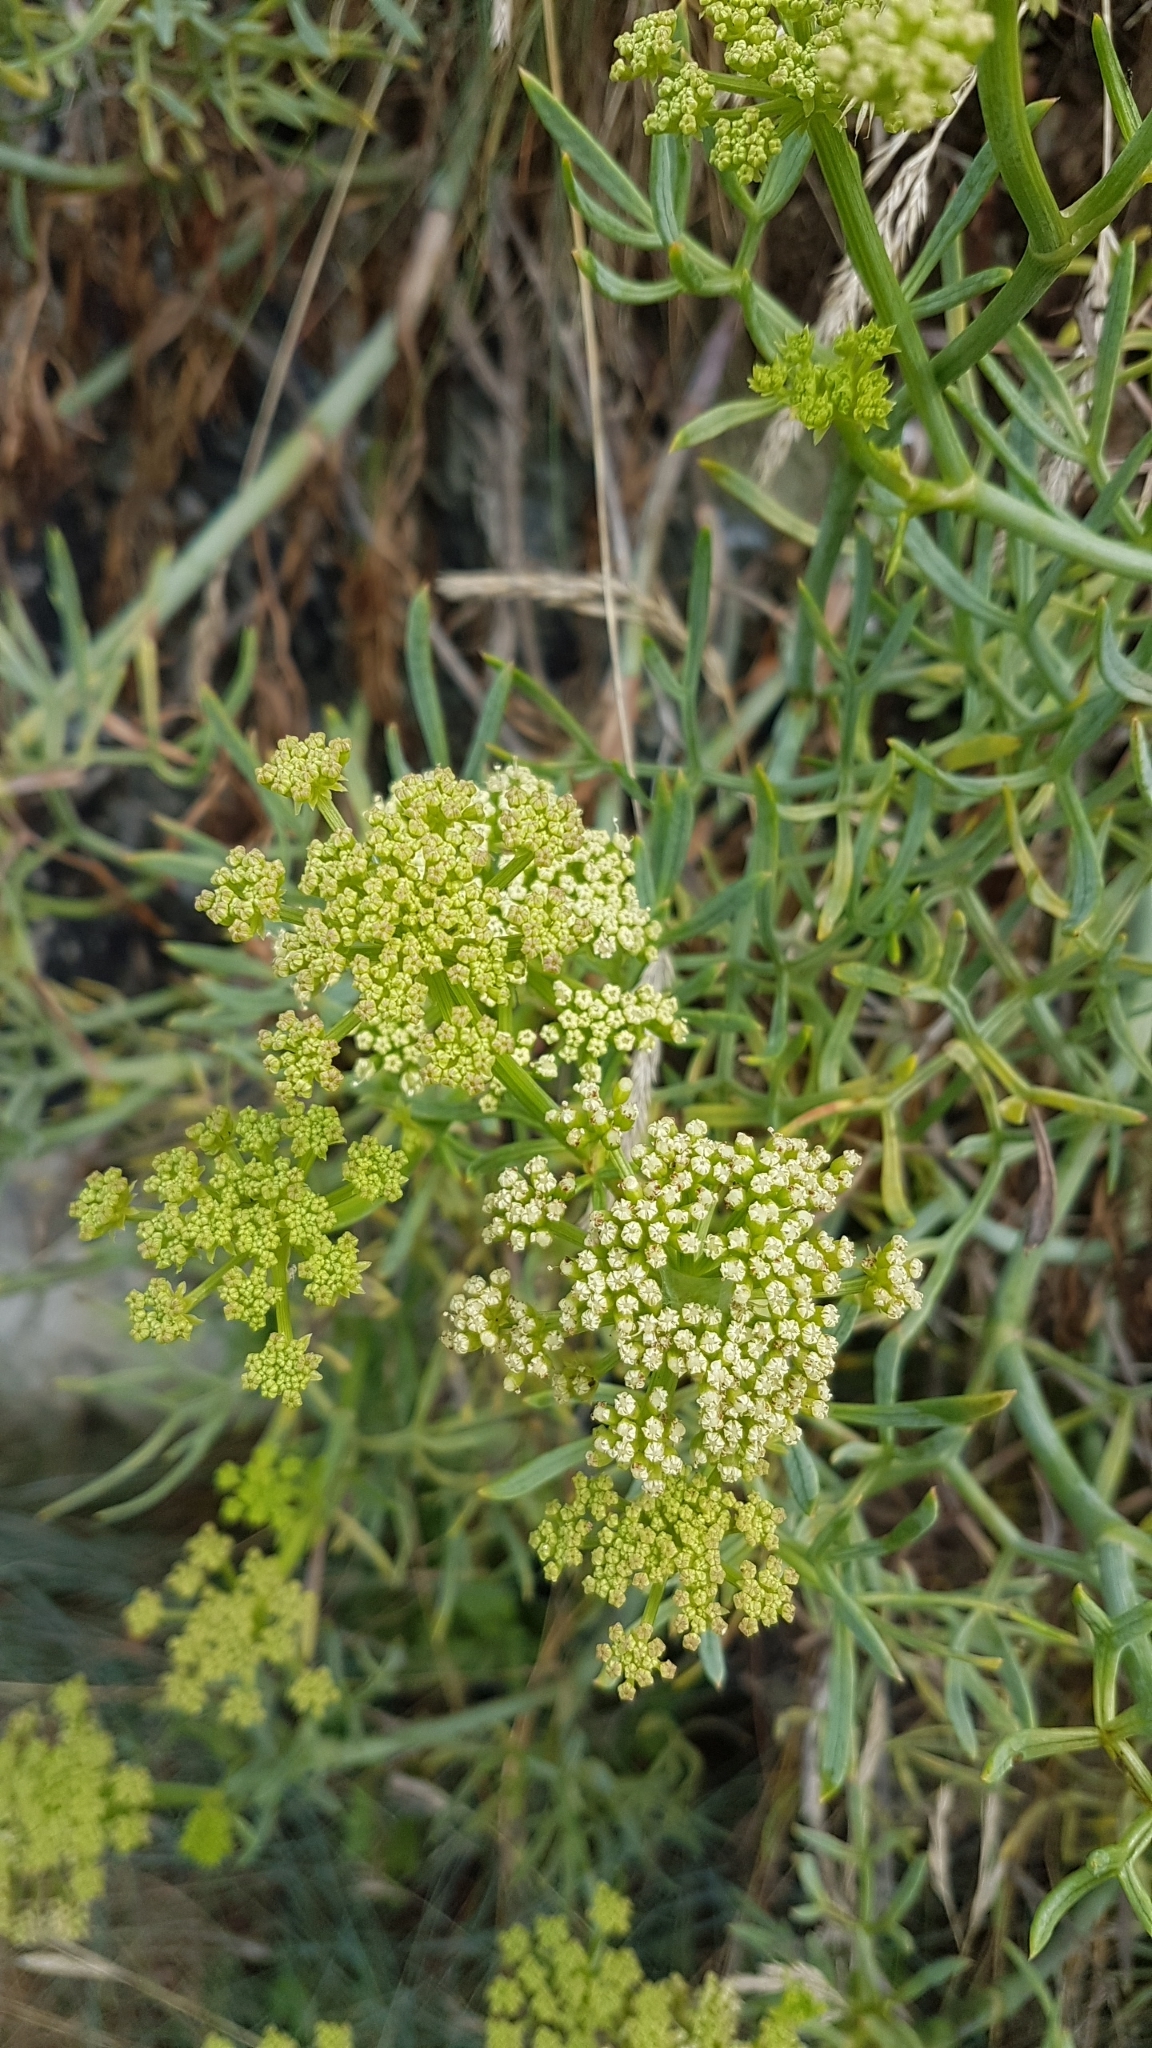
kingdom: Plantae
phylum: Tracheophyta
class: Magnoliopsida
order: Apiales
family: Apiaceae
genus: Crithmum
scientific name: Crithmum maritimum
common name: Rock samphire
